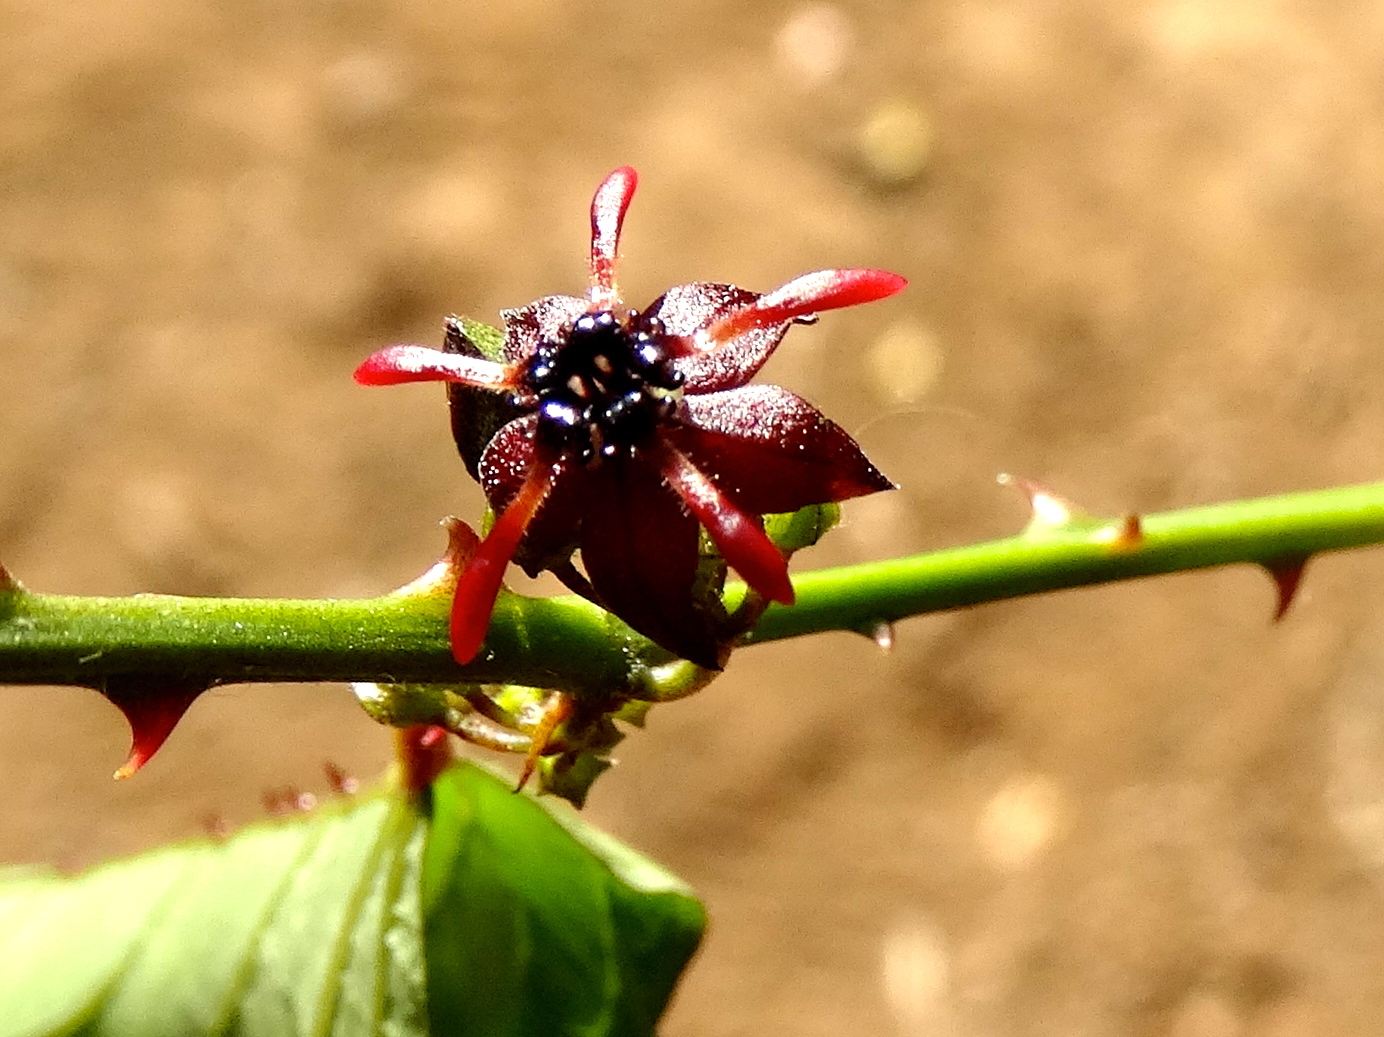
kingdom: Plantae
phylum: Tracheophyta
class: Magnoliopsida
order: Malvales
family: Malvaceae
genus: Byttneria
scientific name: Byttneria aculeata
